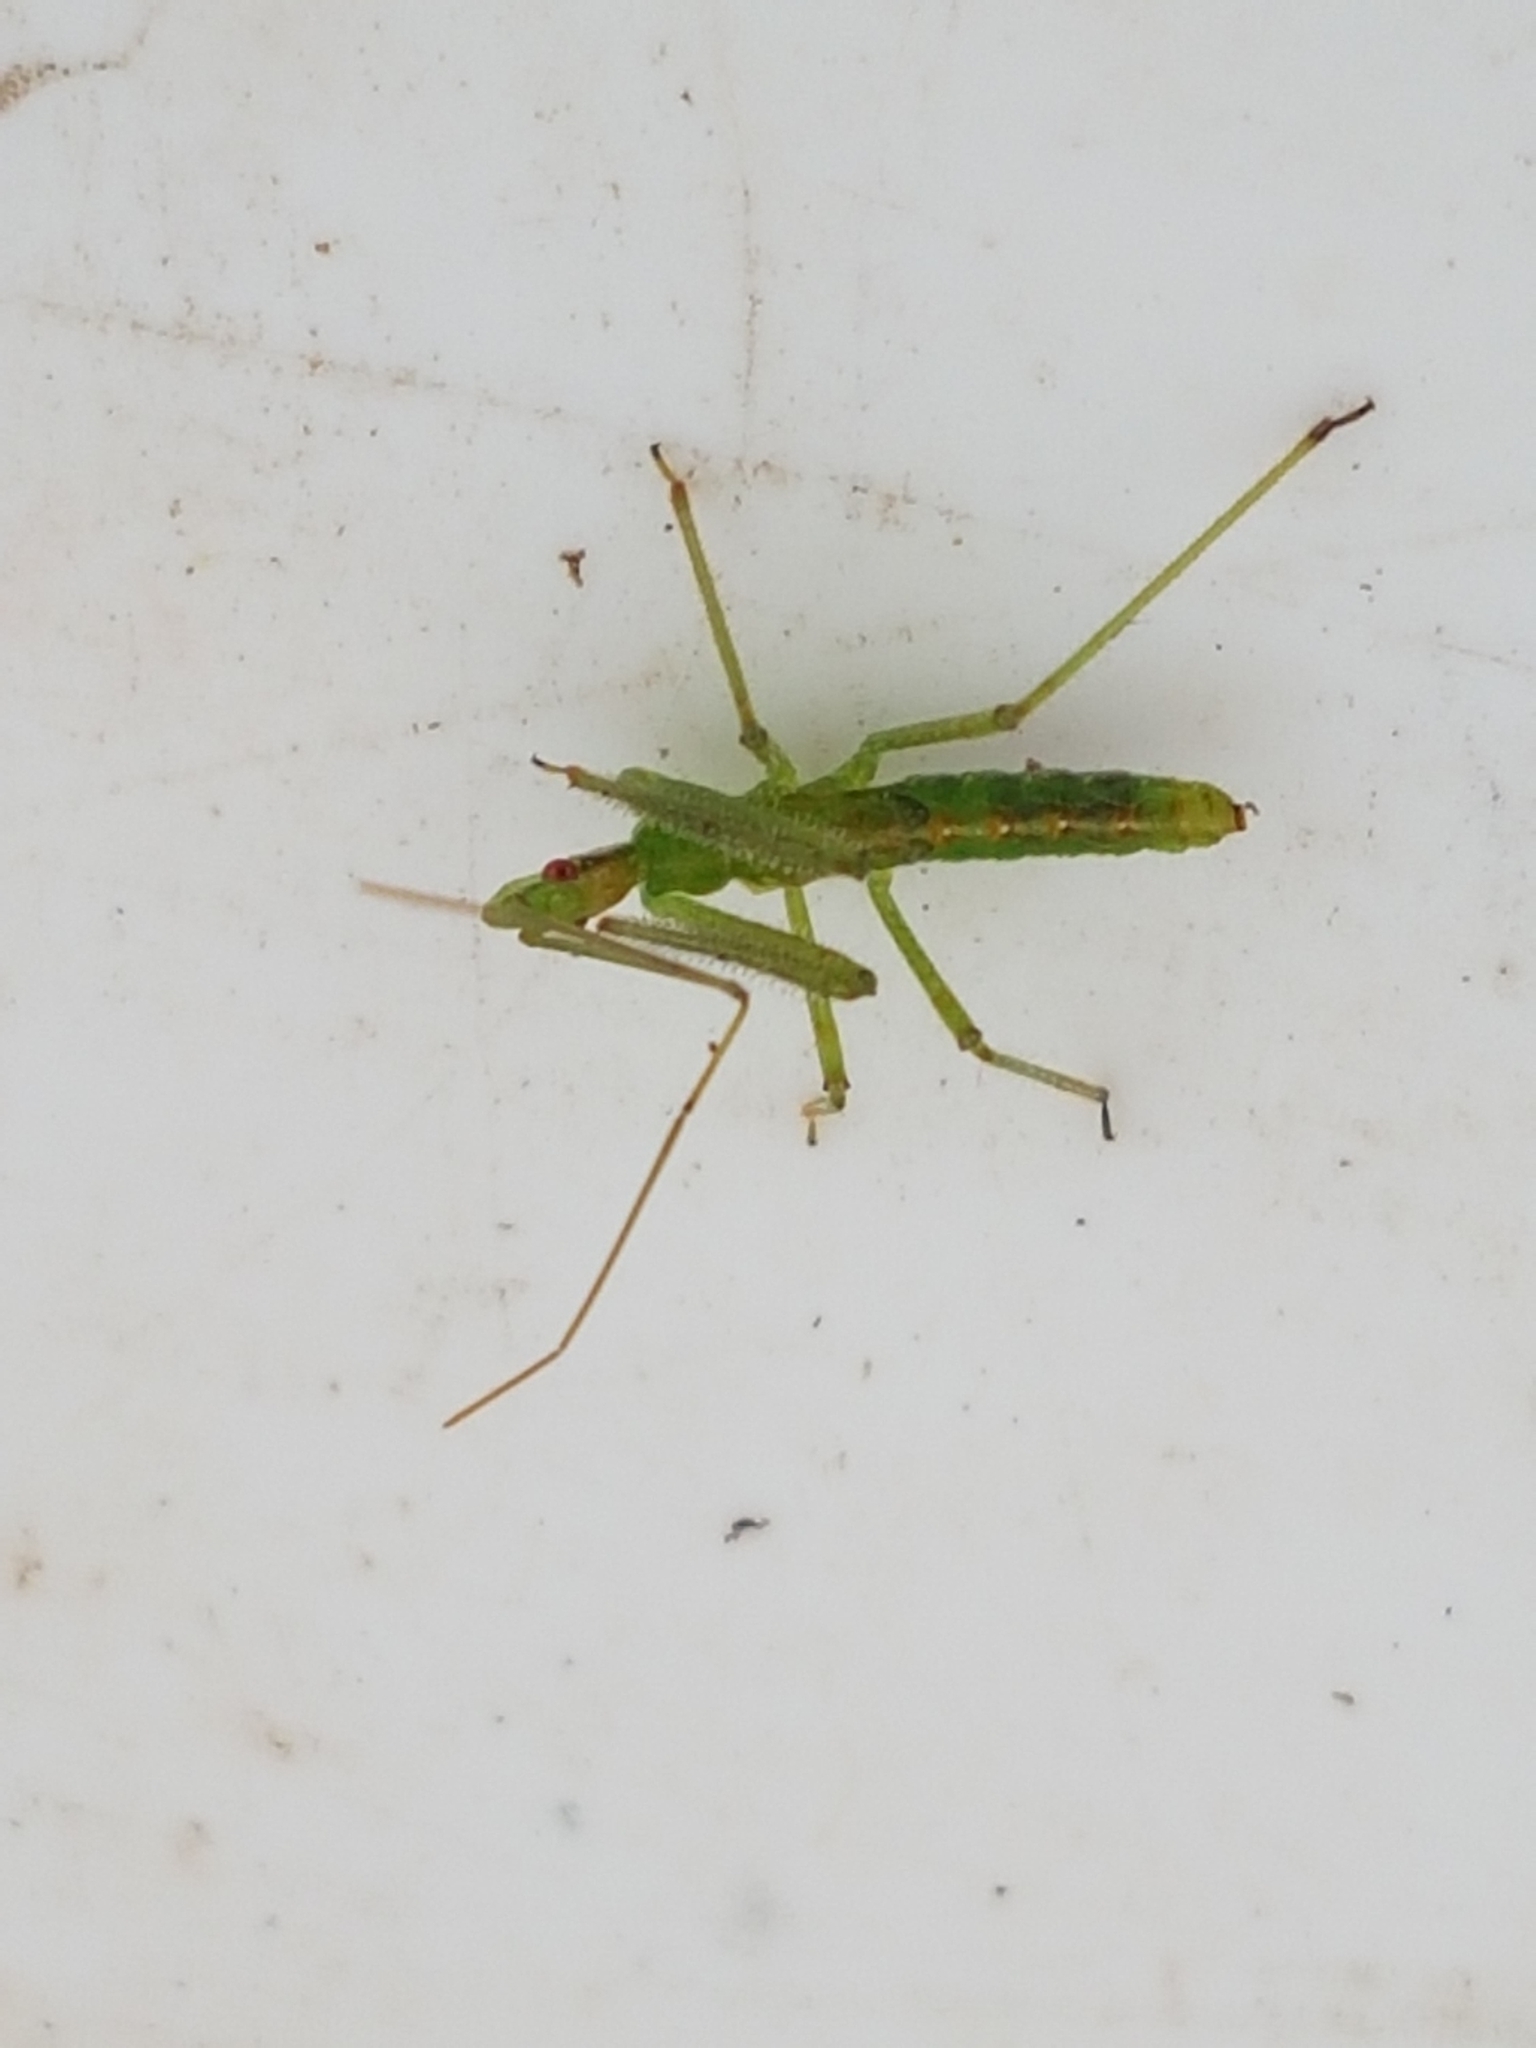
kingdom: Animalia
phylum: Arthropoda
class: Insecta
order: Hemiptera
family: Reduviidae
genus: Zelus
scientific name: Zelus luridus
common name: Pale green assassin bug
